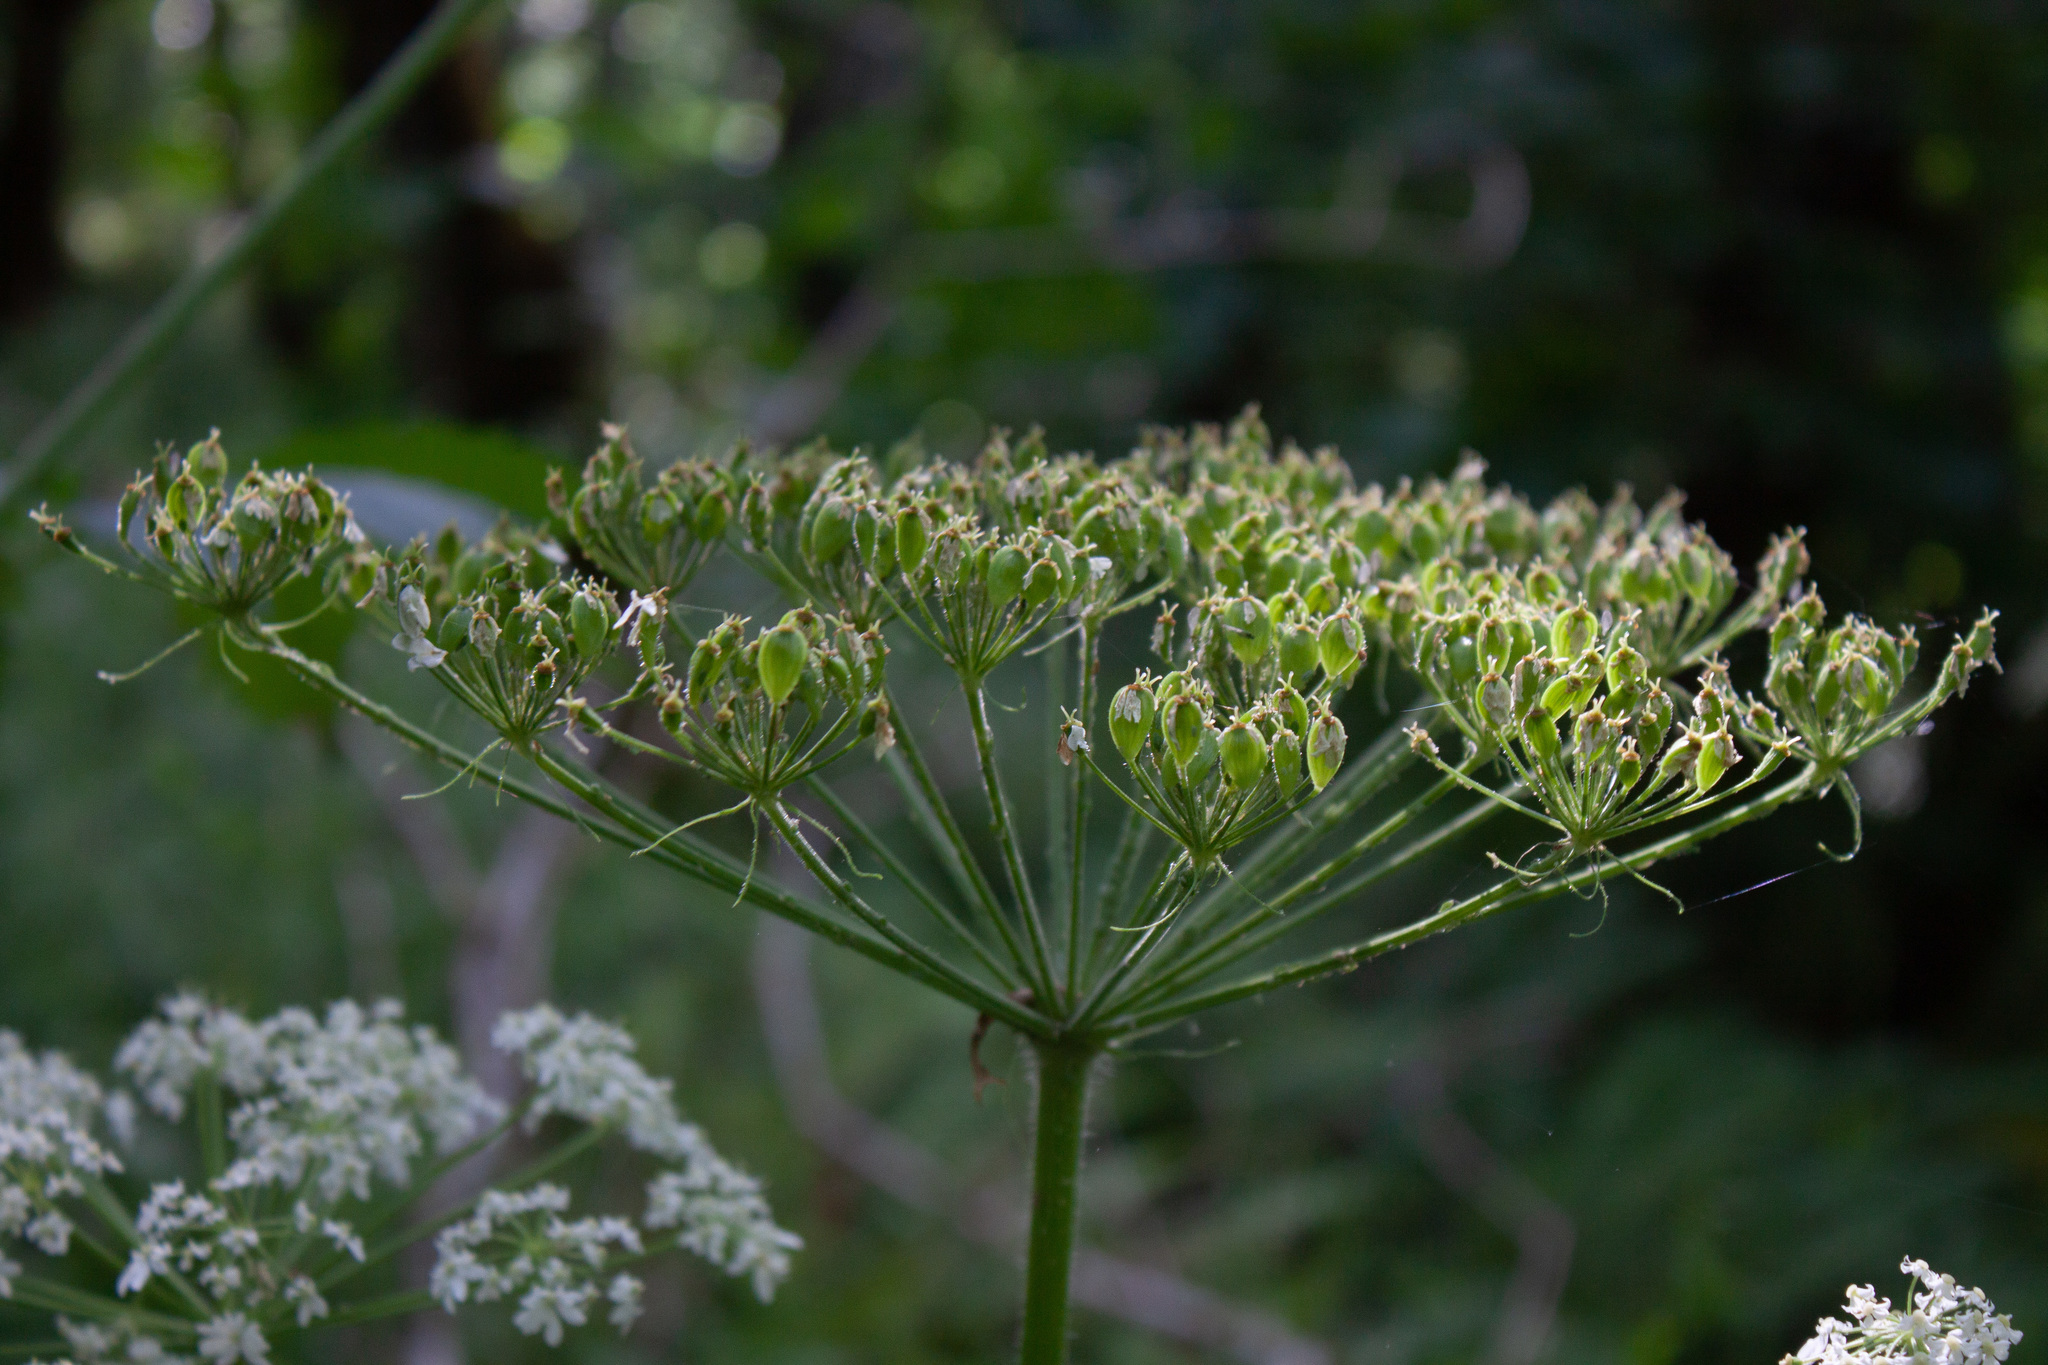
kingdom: Plantae
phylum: Tracheophyta
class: Magnoliopsida
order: Apiales
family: Apiaceae
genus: Heracleum
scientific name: Heracleum maximum
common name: American cow parsnip
